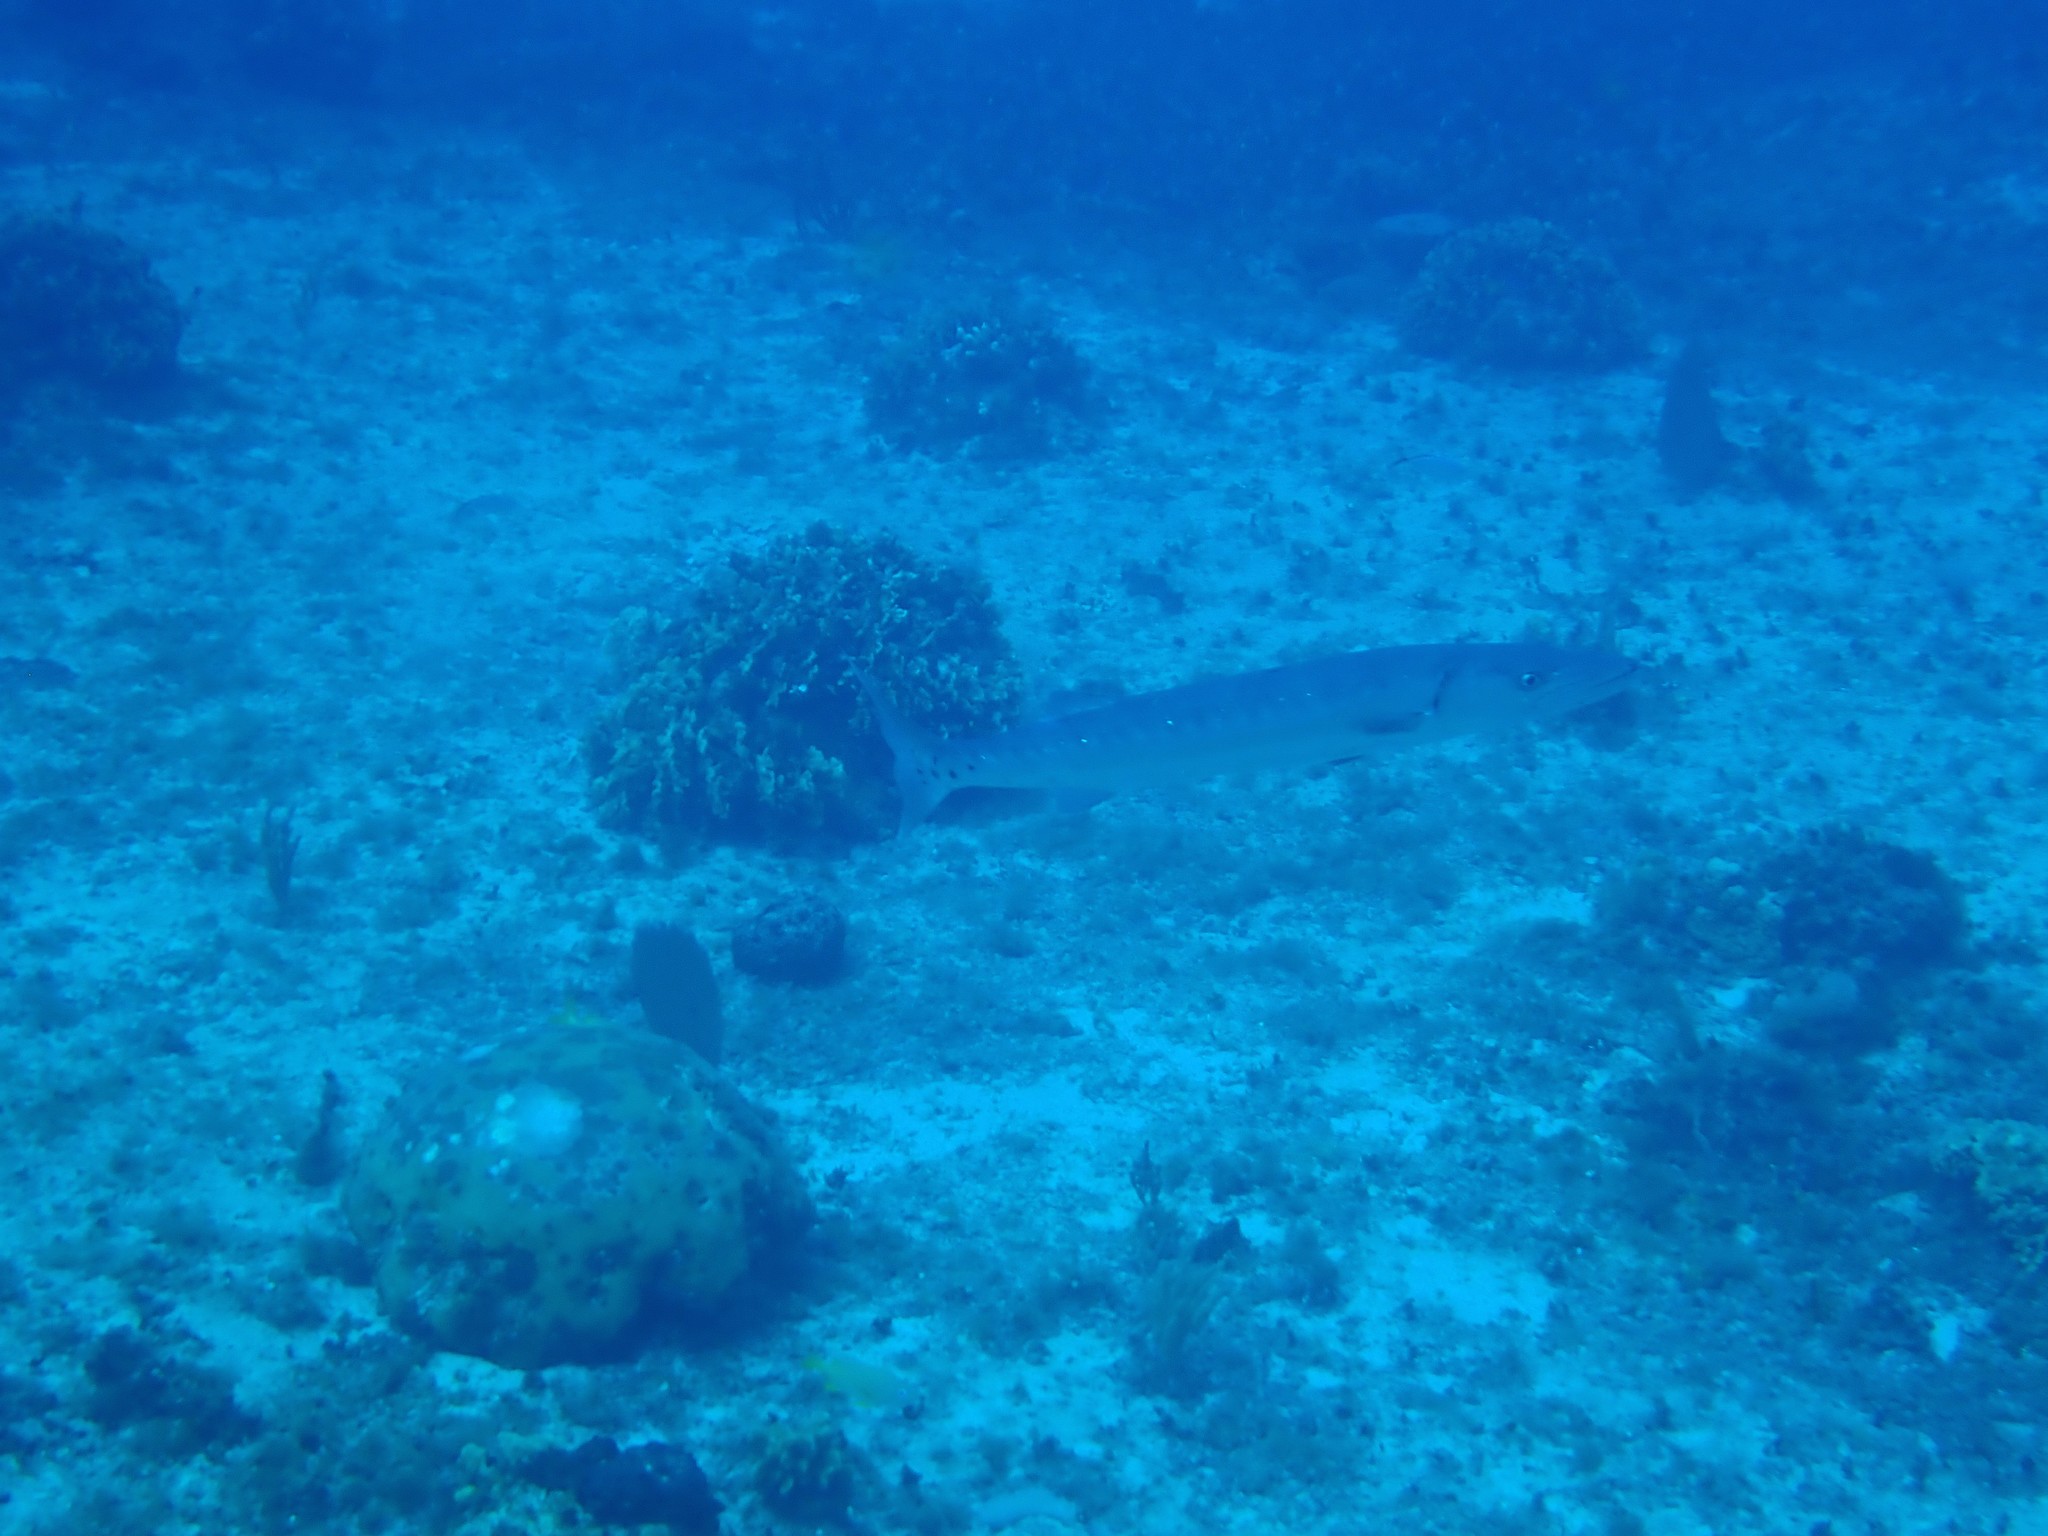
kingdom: Animalia
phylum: Chordata
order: Perciformes
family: Sphyraenidae
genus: Sphyraena
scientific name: Sphyraena barracuda
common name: Great barracuda
